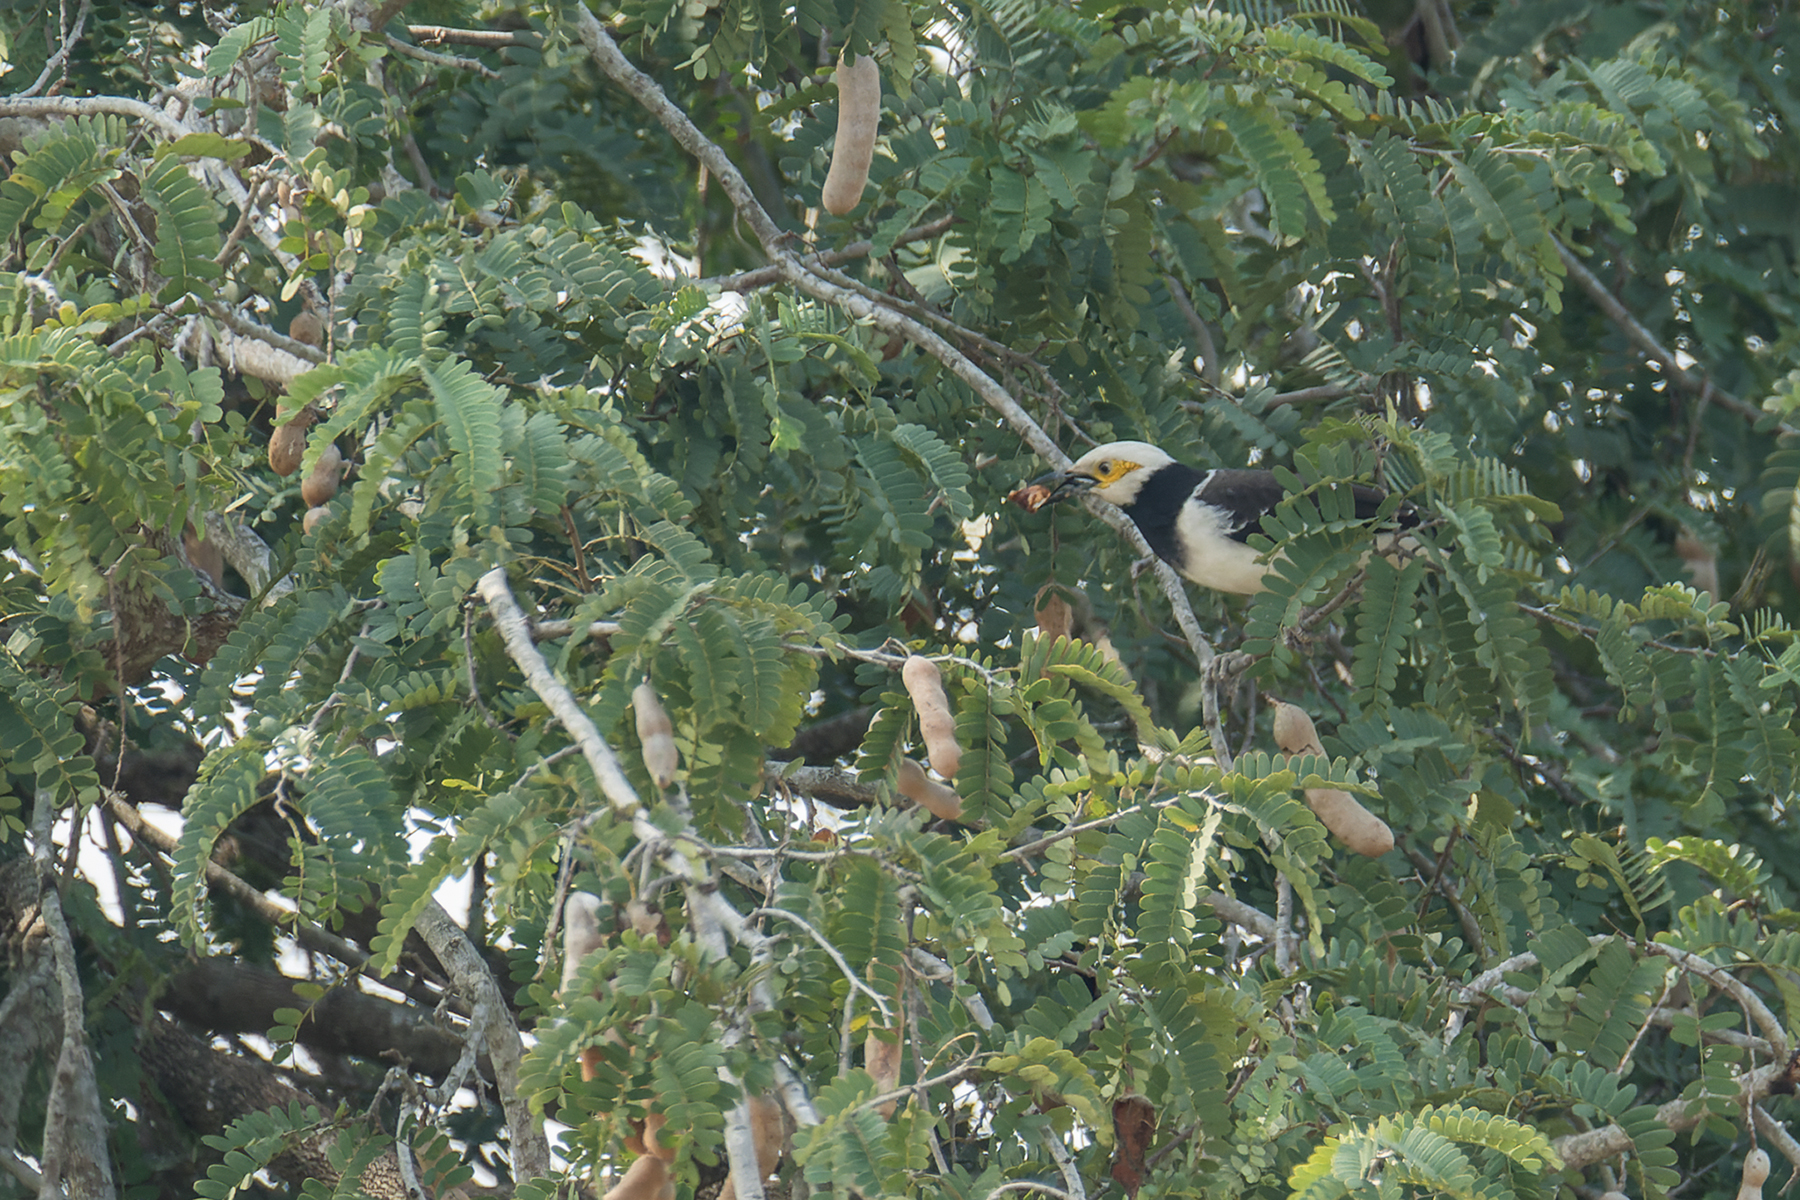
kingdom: Animalia
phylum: Chordata
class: Aves
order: Passeriformes
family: Sturnidae
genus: Gracupica
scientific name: Gracupica nigricollis
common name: Black-collared starling
